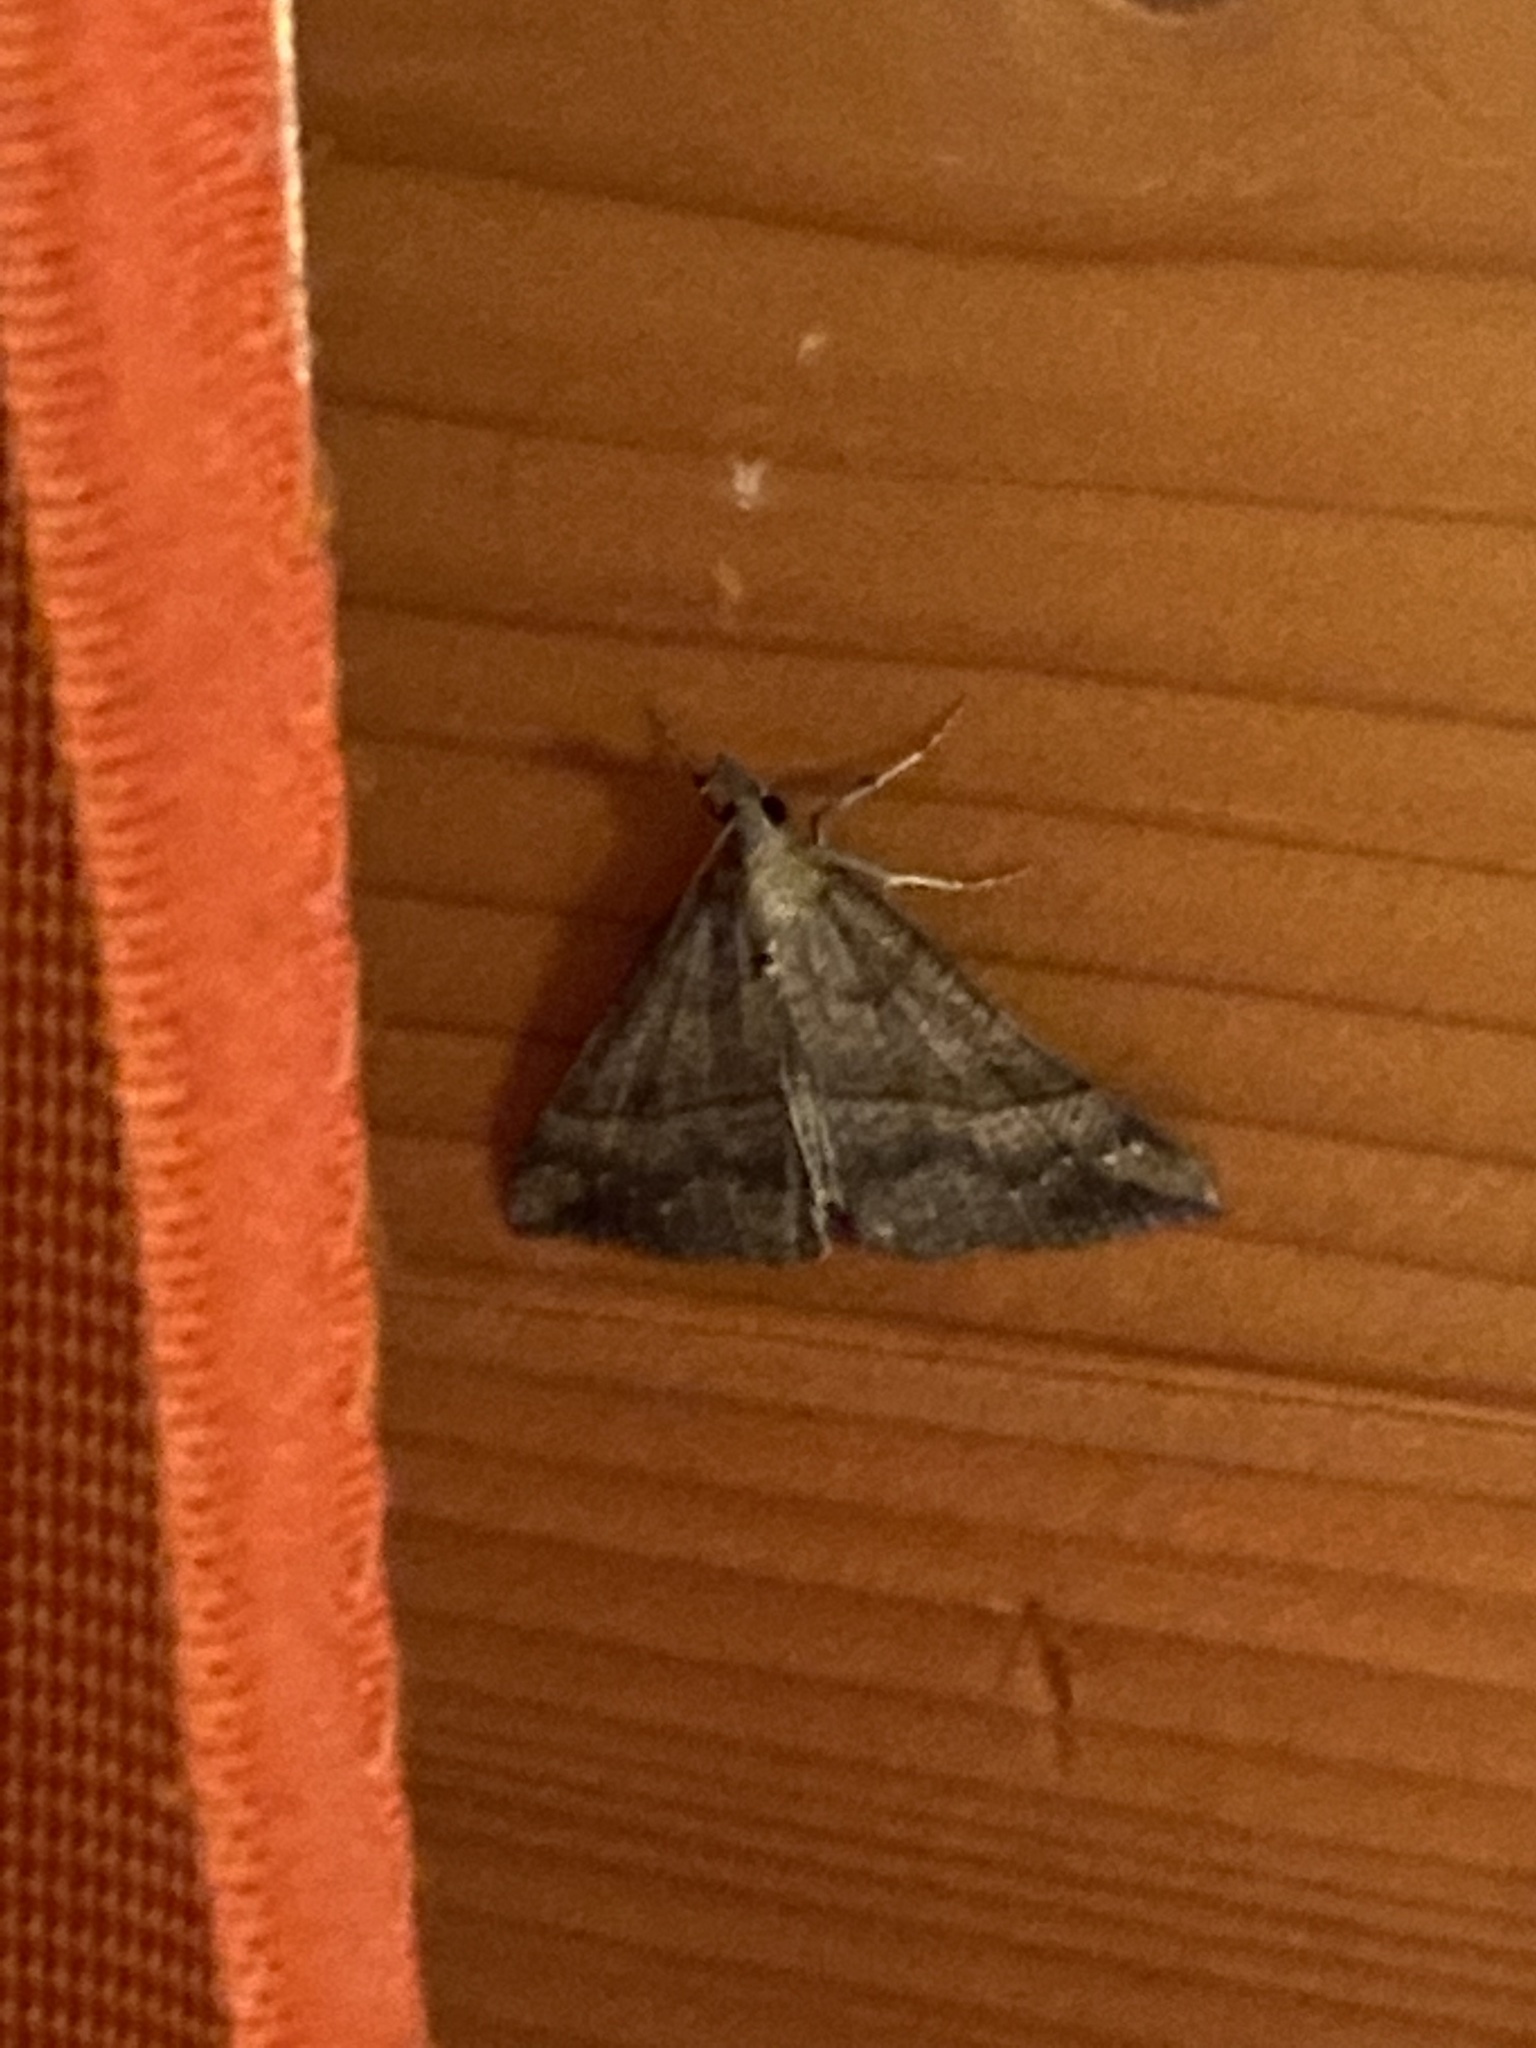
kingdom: Animalia
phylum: Arthropoda
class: Insecta
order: Lepidoptera
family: Erebidae
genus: Hypena
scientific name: Hypena proboscidalis
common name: Snout
